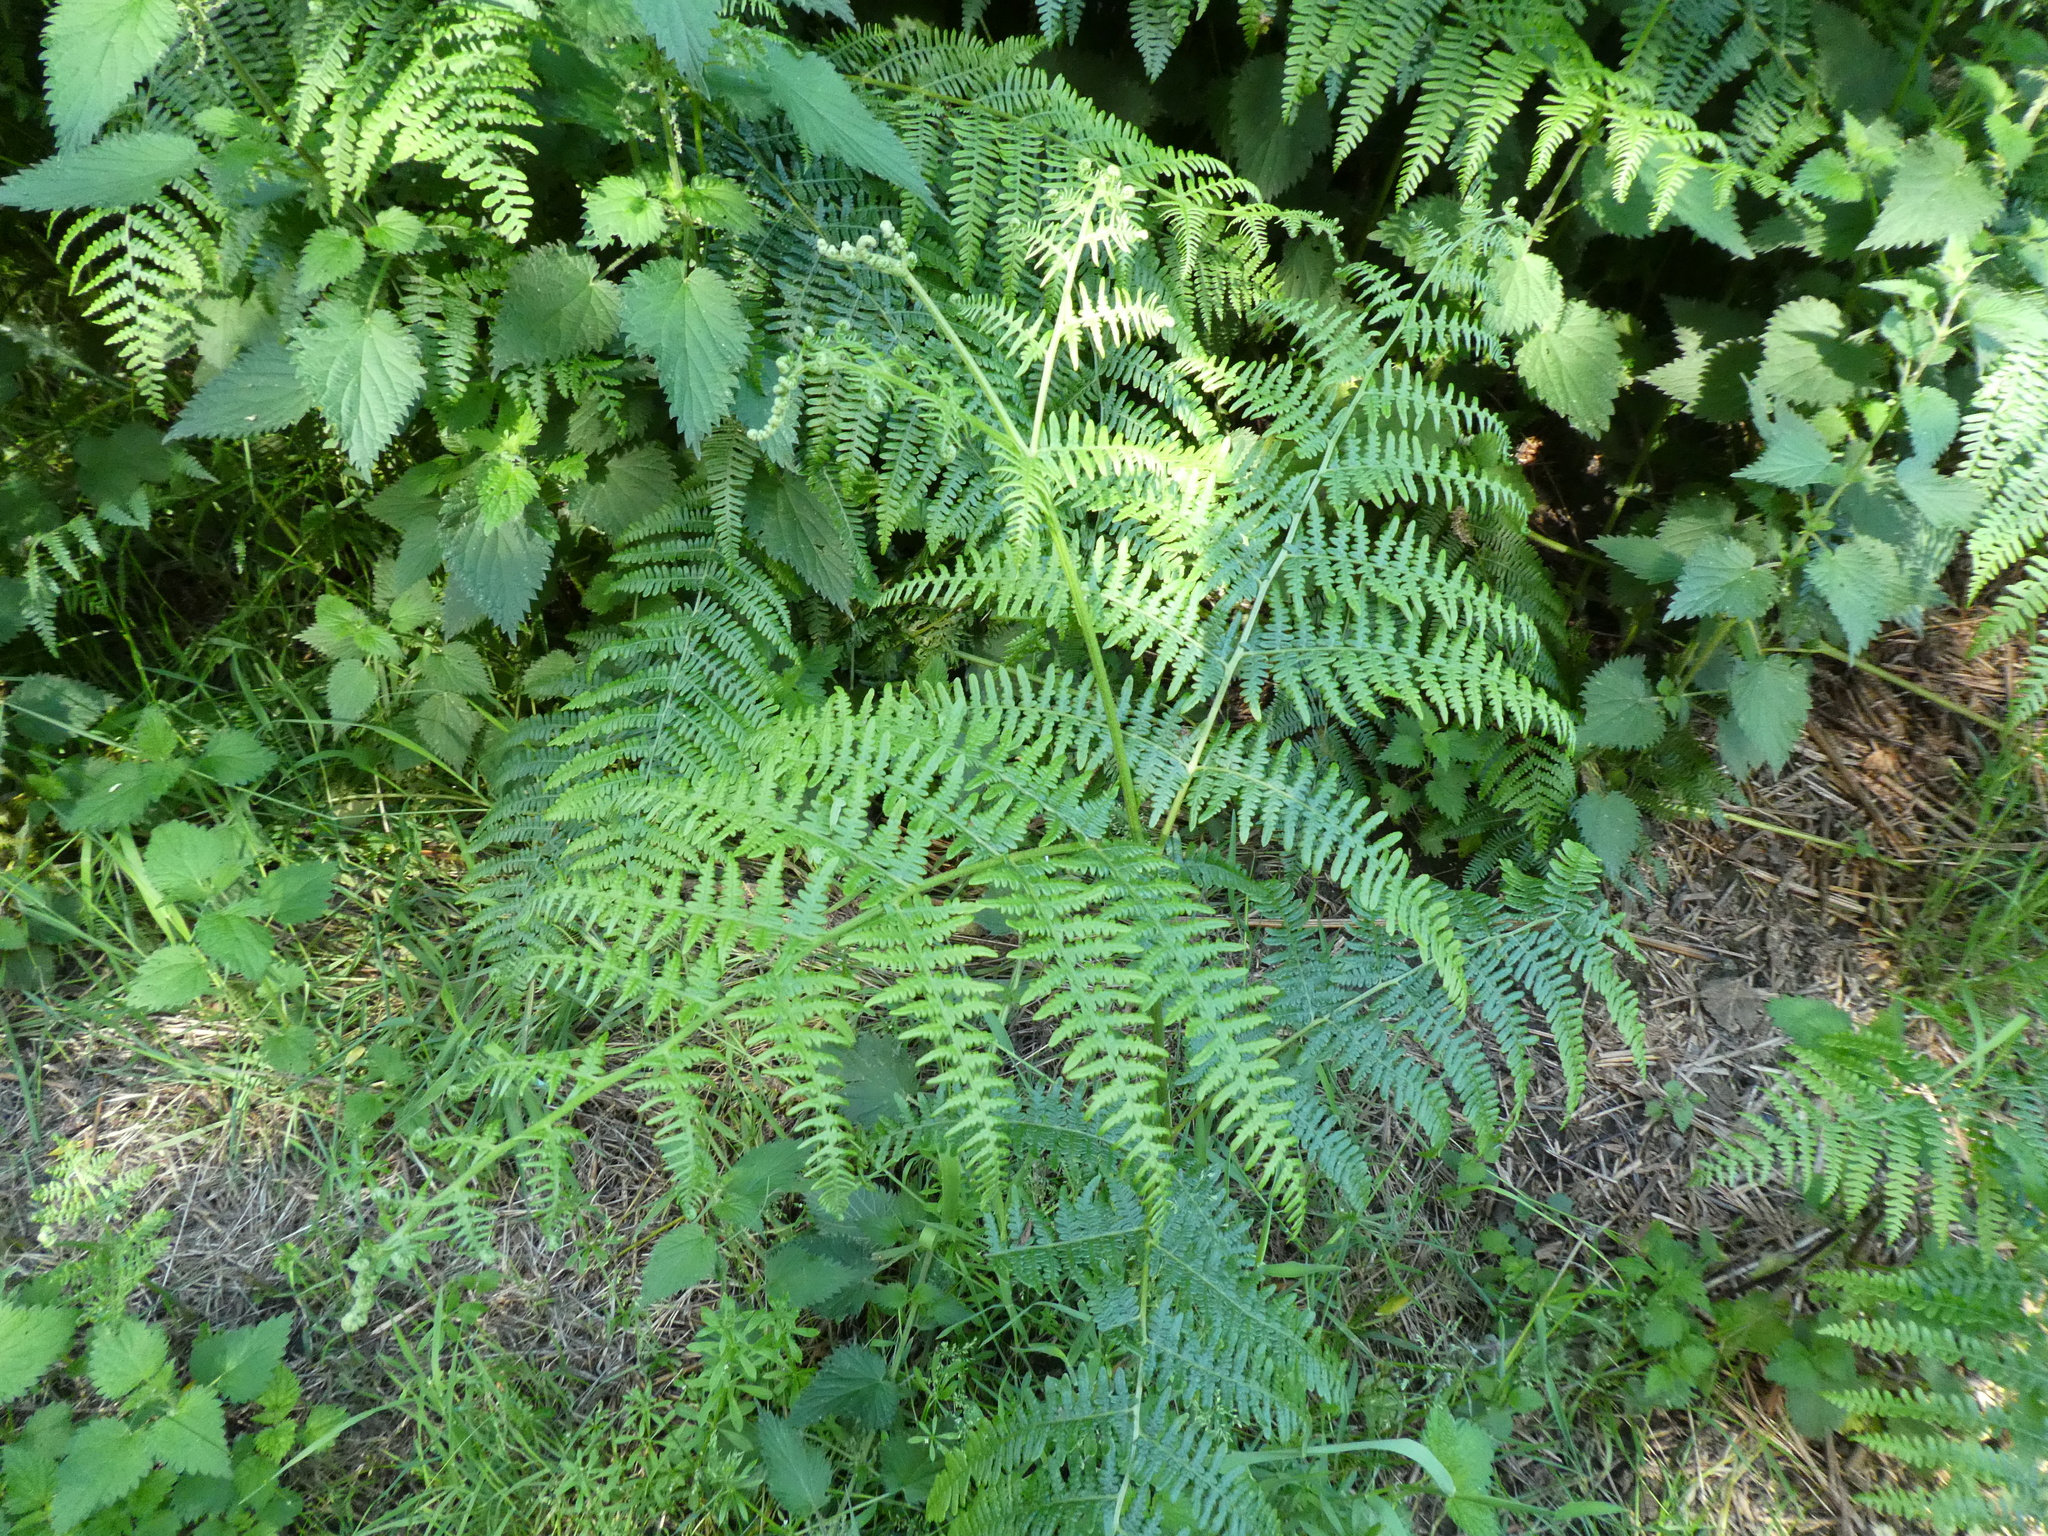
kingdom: Plantae
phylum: Tracheophyta
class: Polypodiopsida
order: Polypodiales
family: Dennstaedtiaceae
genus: Pteridium
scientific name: Pteridium aquilinum
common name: Bracken
